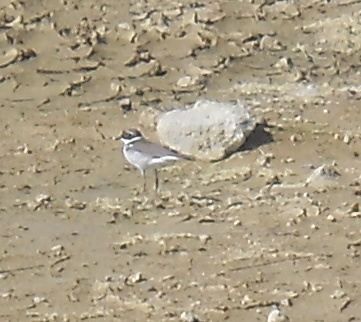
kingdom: Animalia
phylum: Chordata
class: Aves
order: Charadriiformes
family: Charadriidae
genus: Charadrius
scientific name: Charadrius dubius
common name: Little ringed plover
